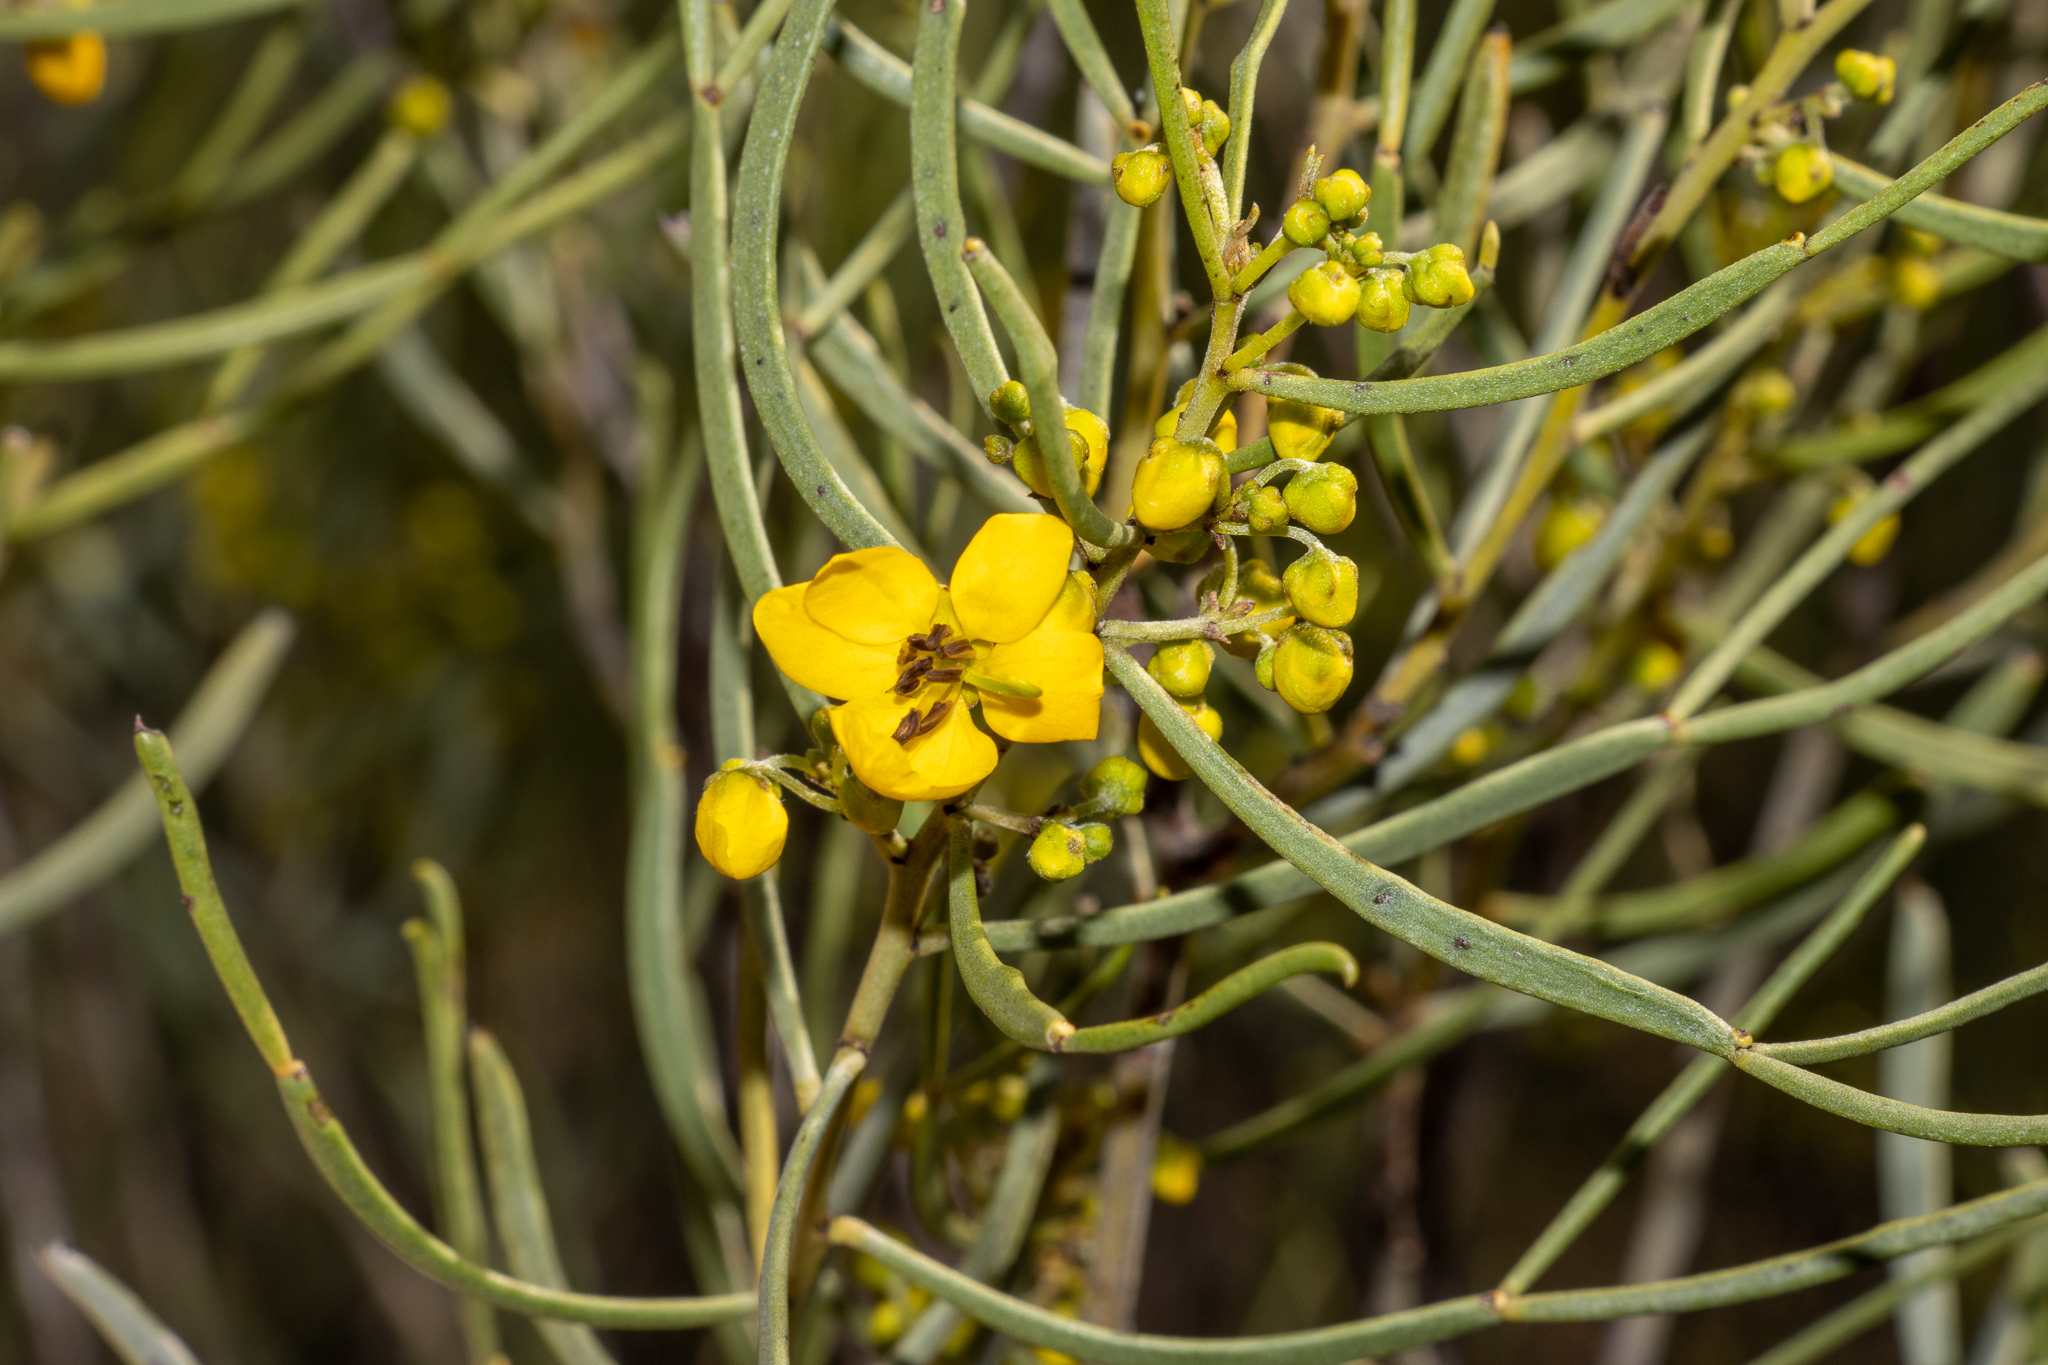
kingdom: Plantae
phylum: Tracheophyta
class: Magnoliopsida
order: Fabales
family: Fabaceae
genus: Senna
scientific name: Senna artemisioides
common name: Burnt-leaved acacia
